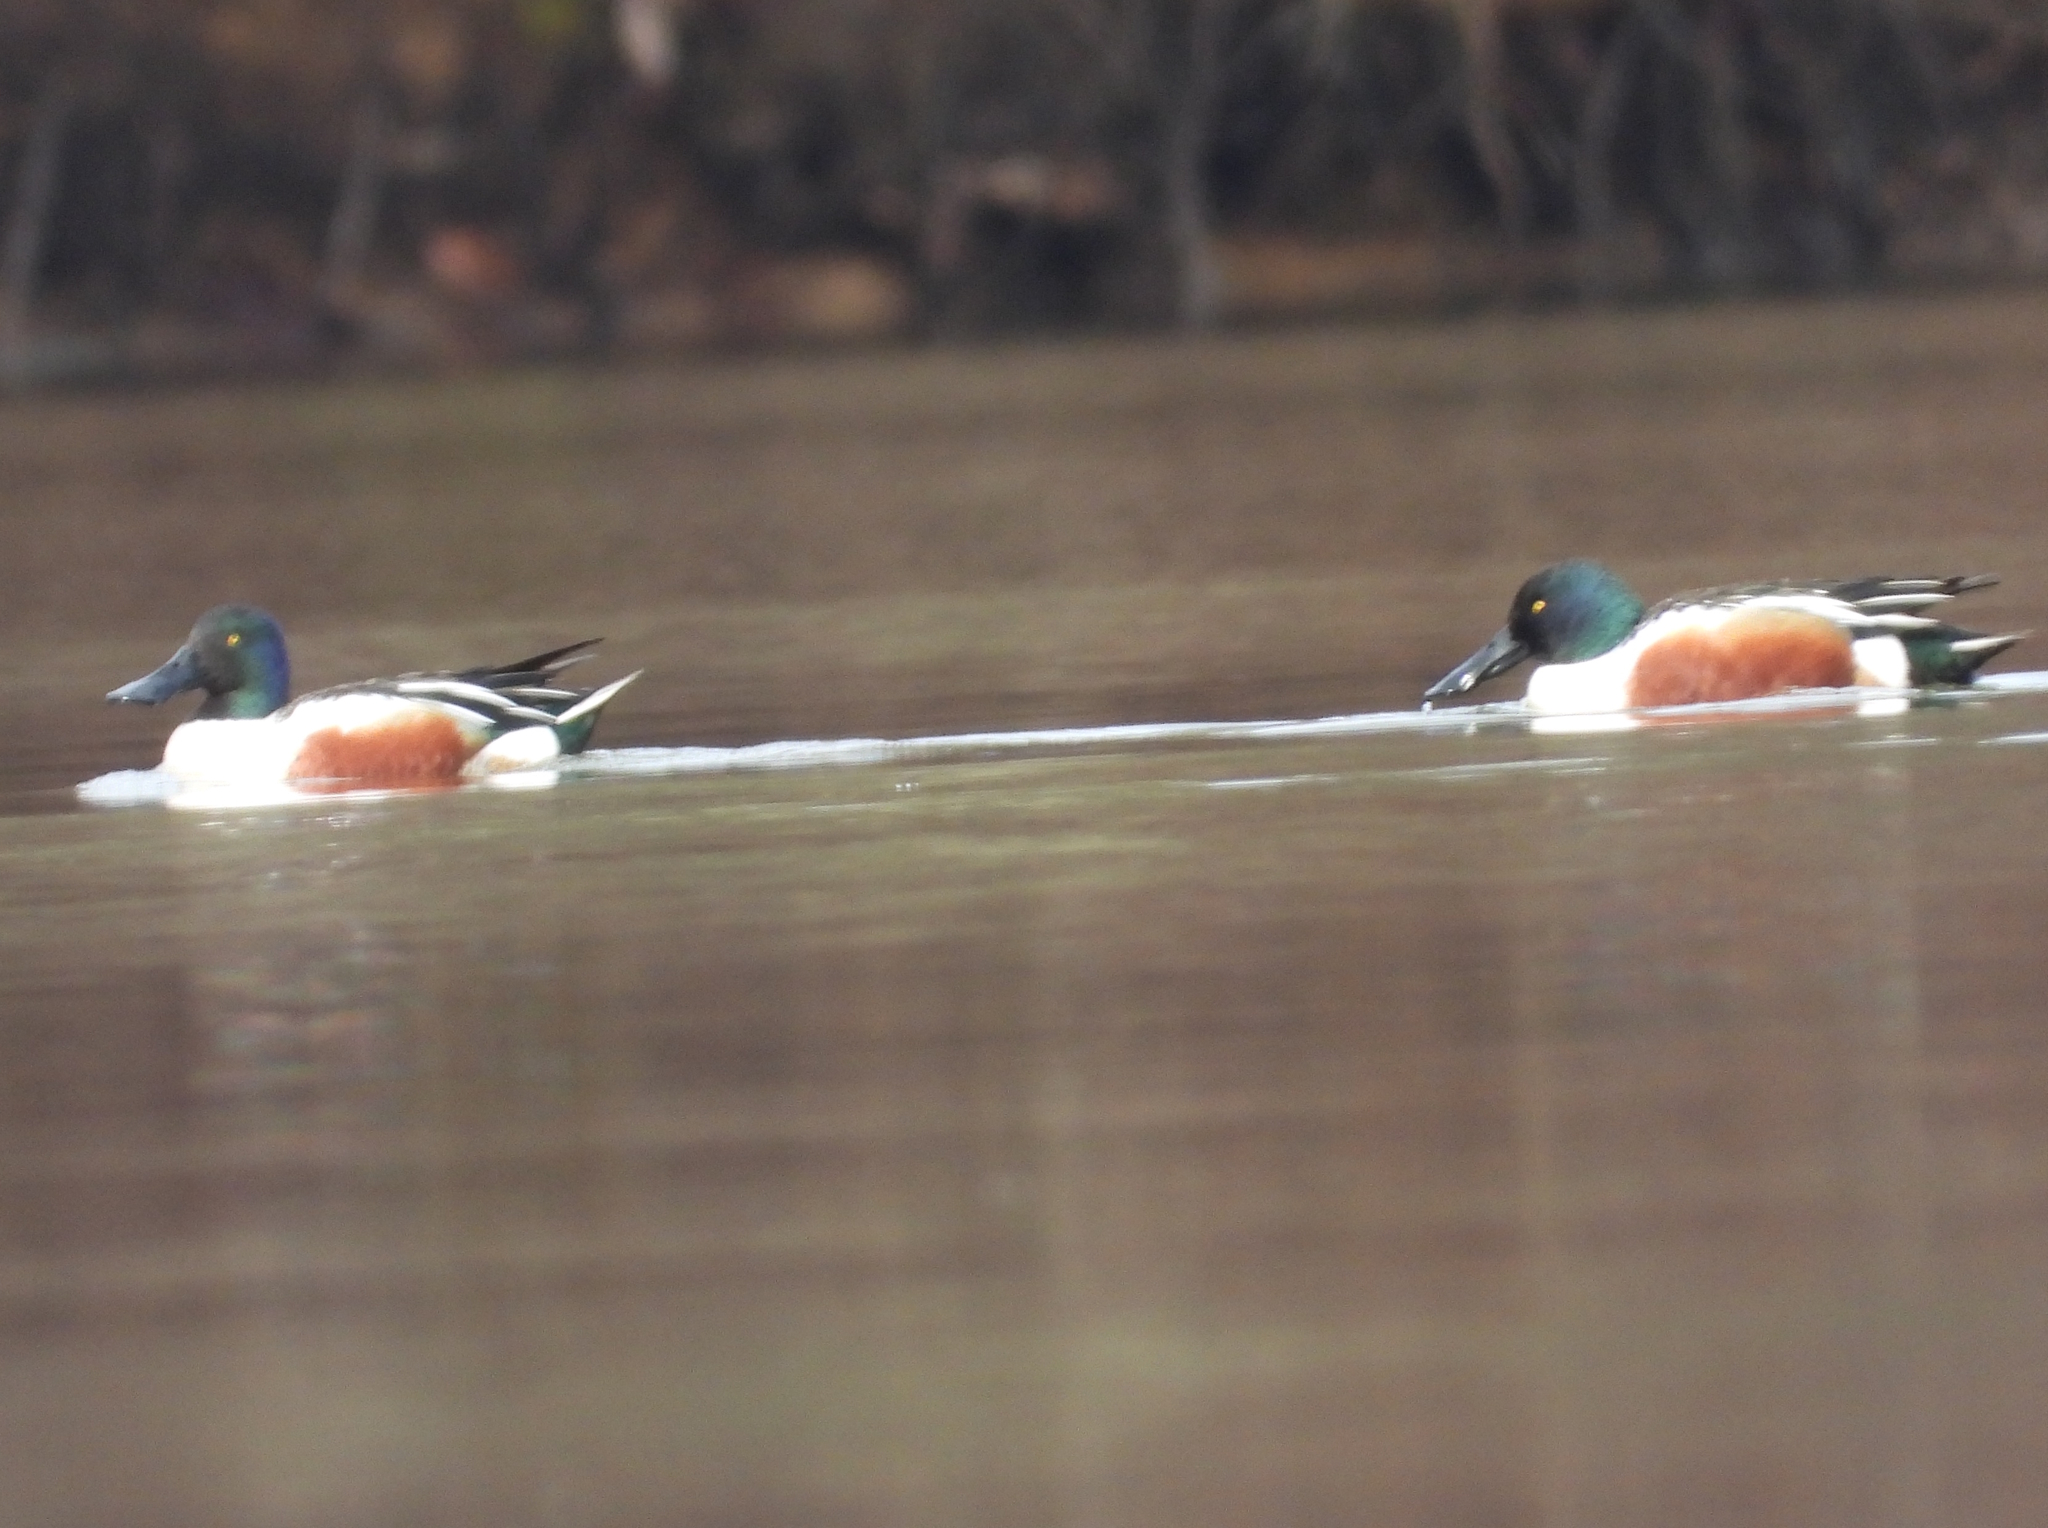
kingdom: Animalia
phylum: Chordata
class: Aves
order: Anseriformes
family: Anatidae
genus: Spatula
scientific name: Spatula clypeata
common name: Northern shoveler
